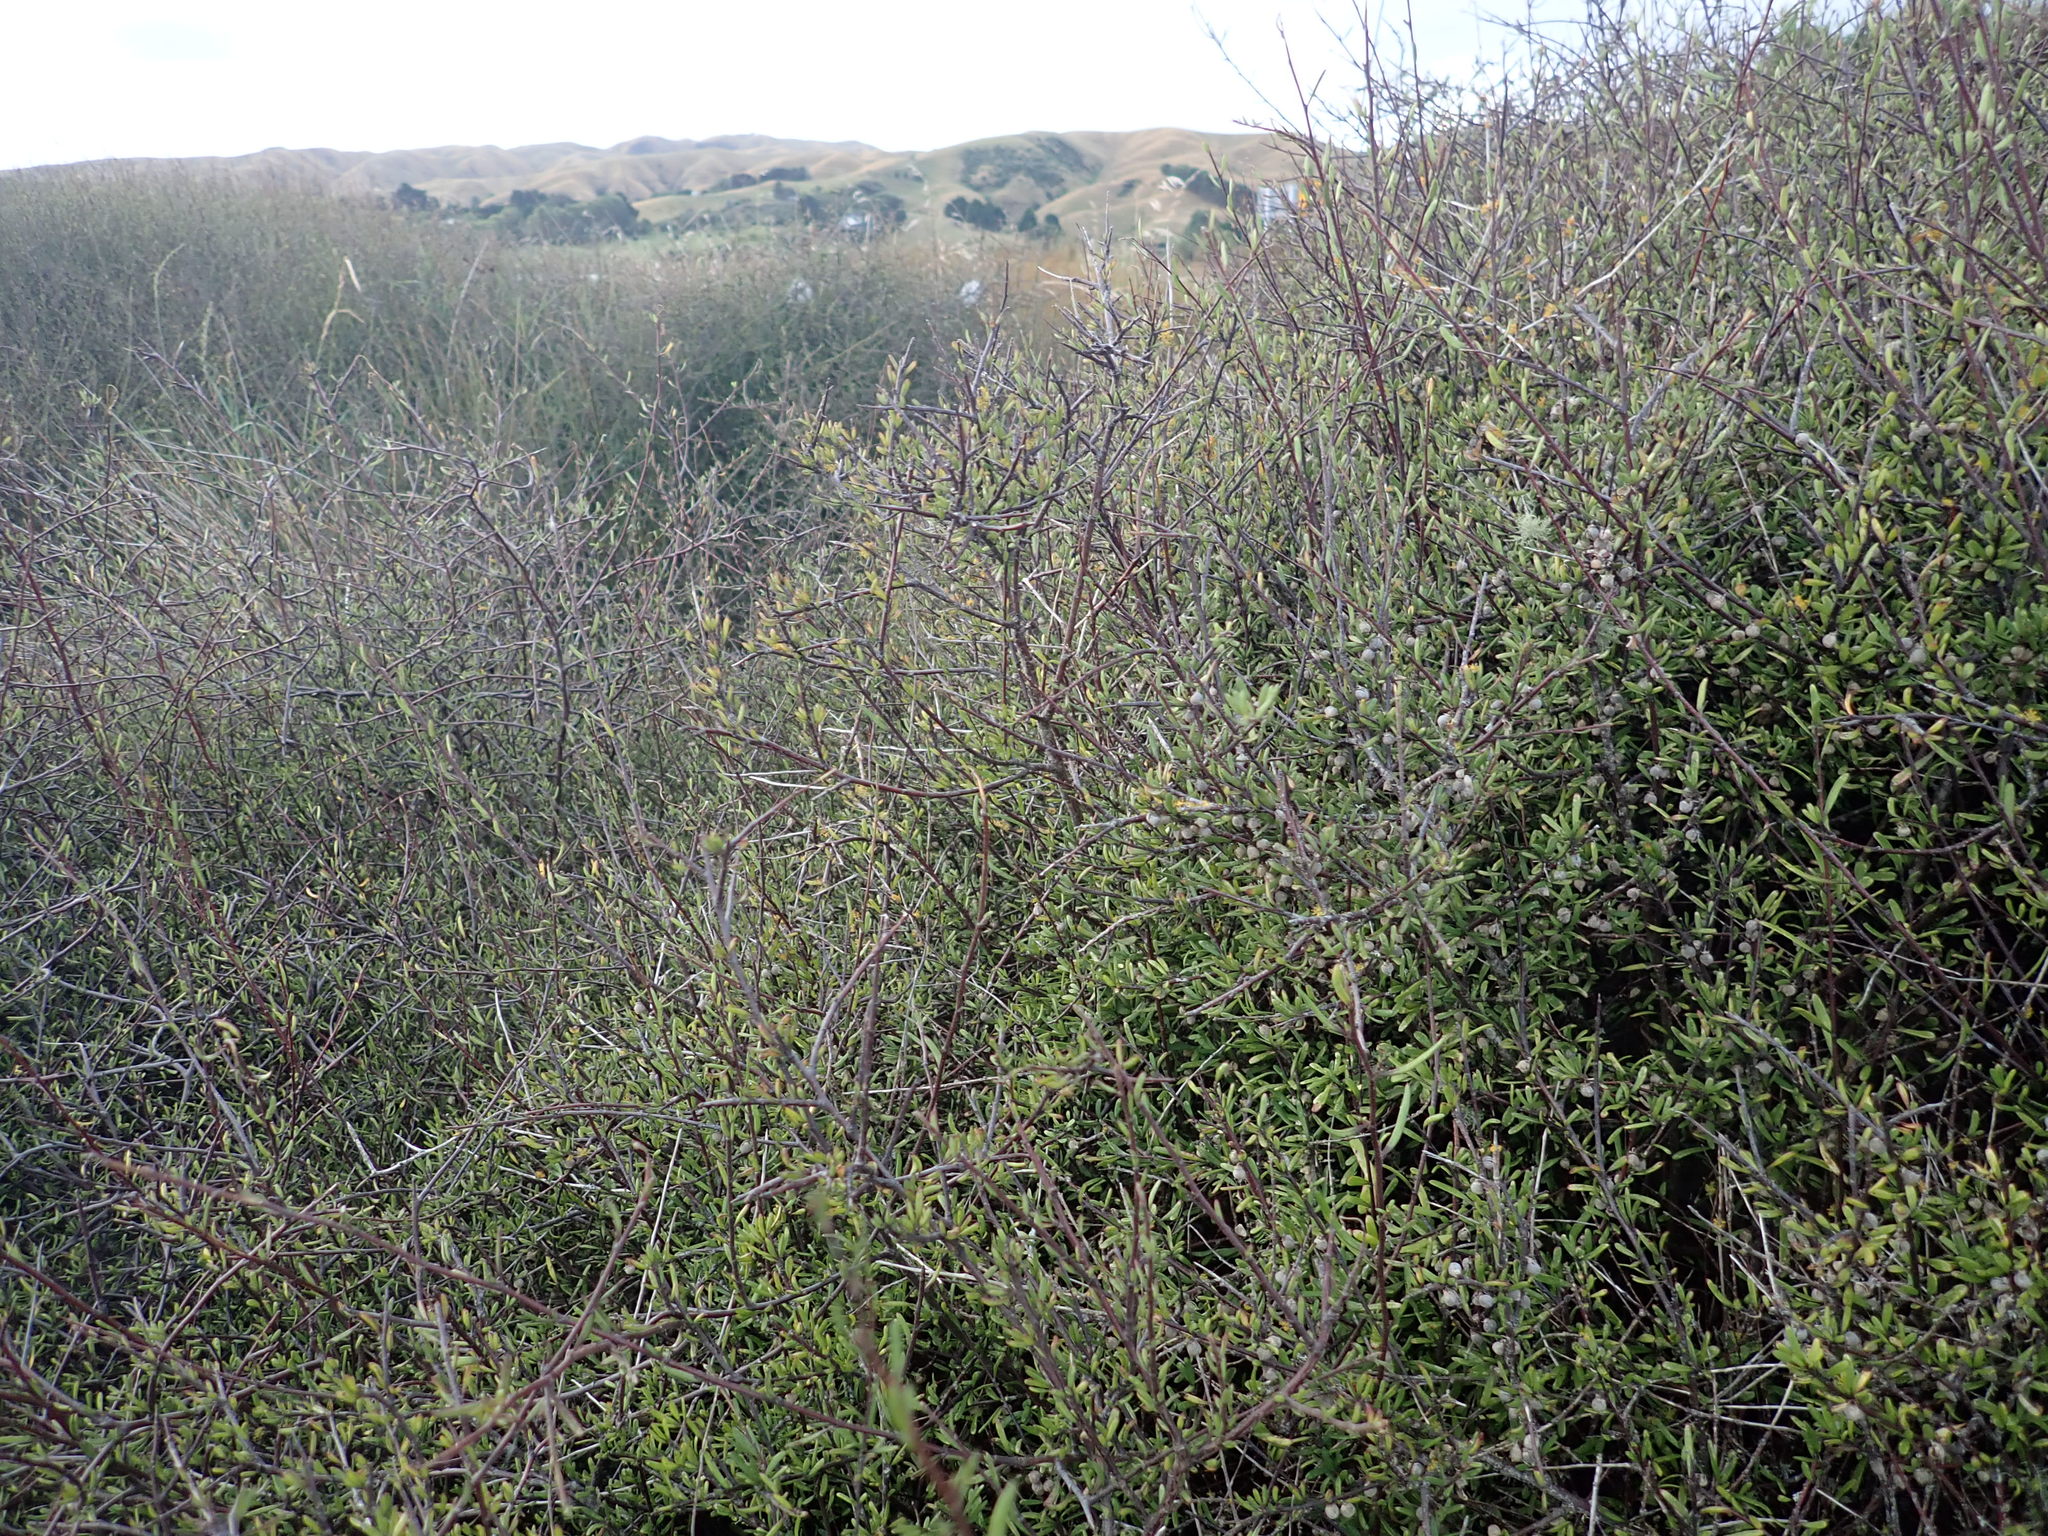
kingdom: Plantae
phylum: Tracheophyta
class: Magnoliopsida
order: Malvales
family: Malvaceae
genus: Plagianthus
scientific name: Plagianthus divaricatus
